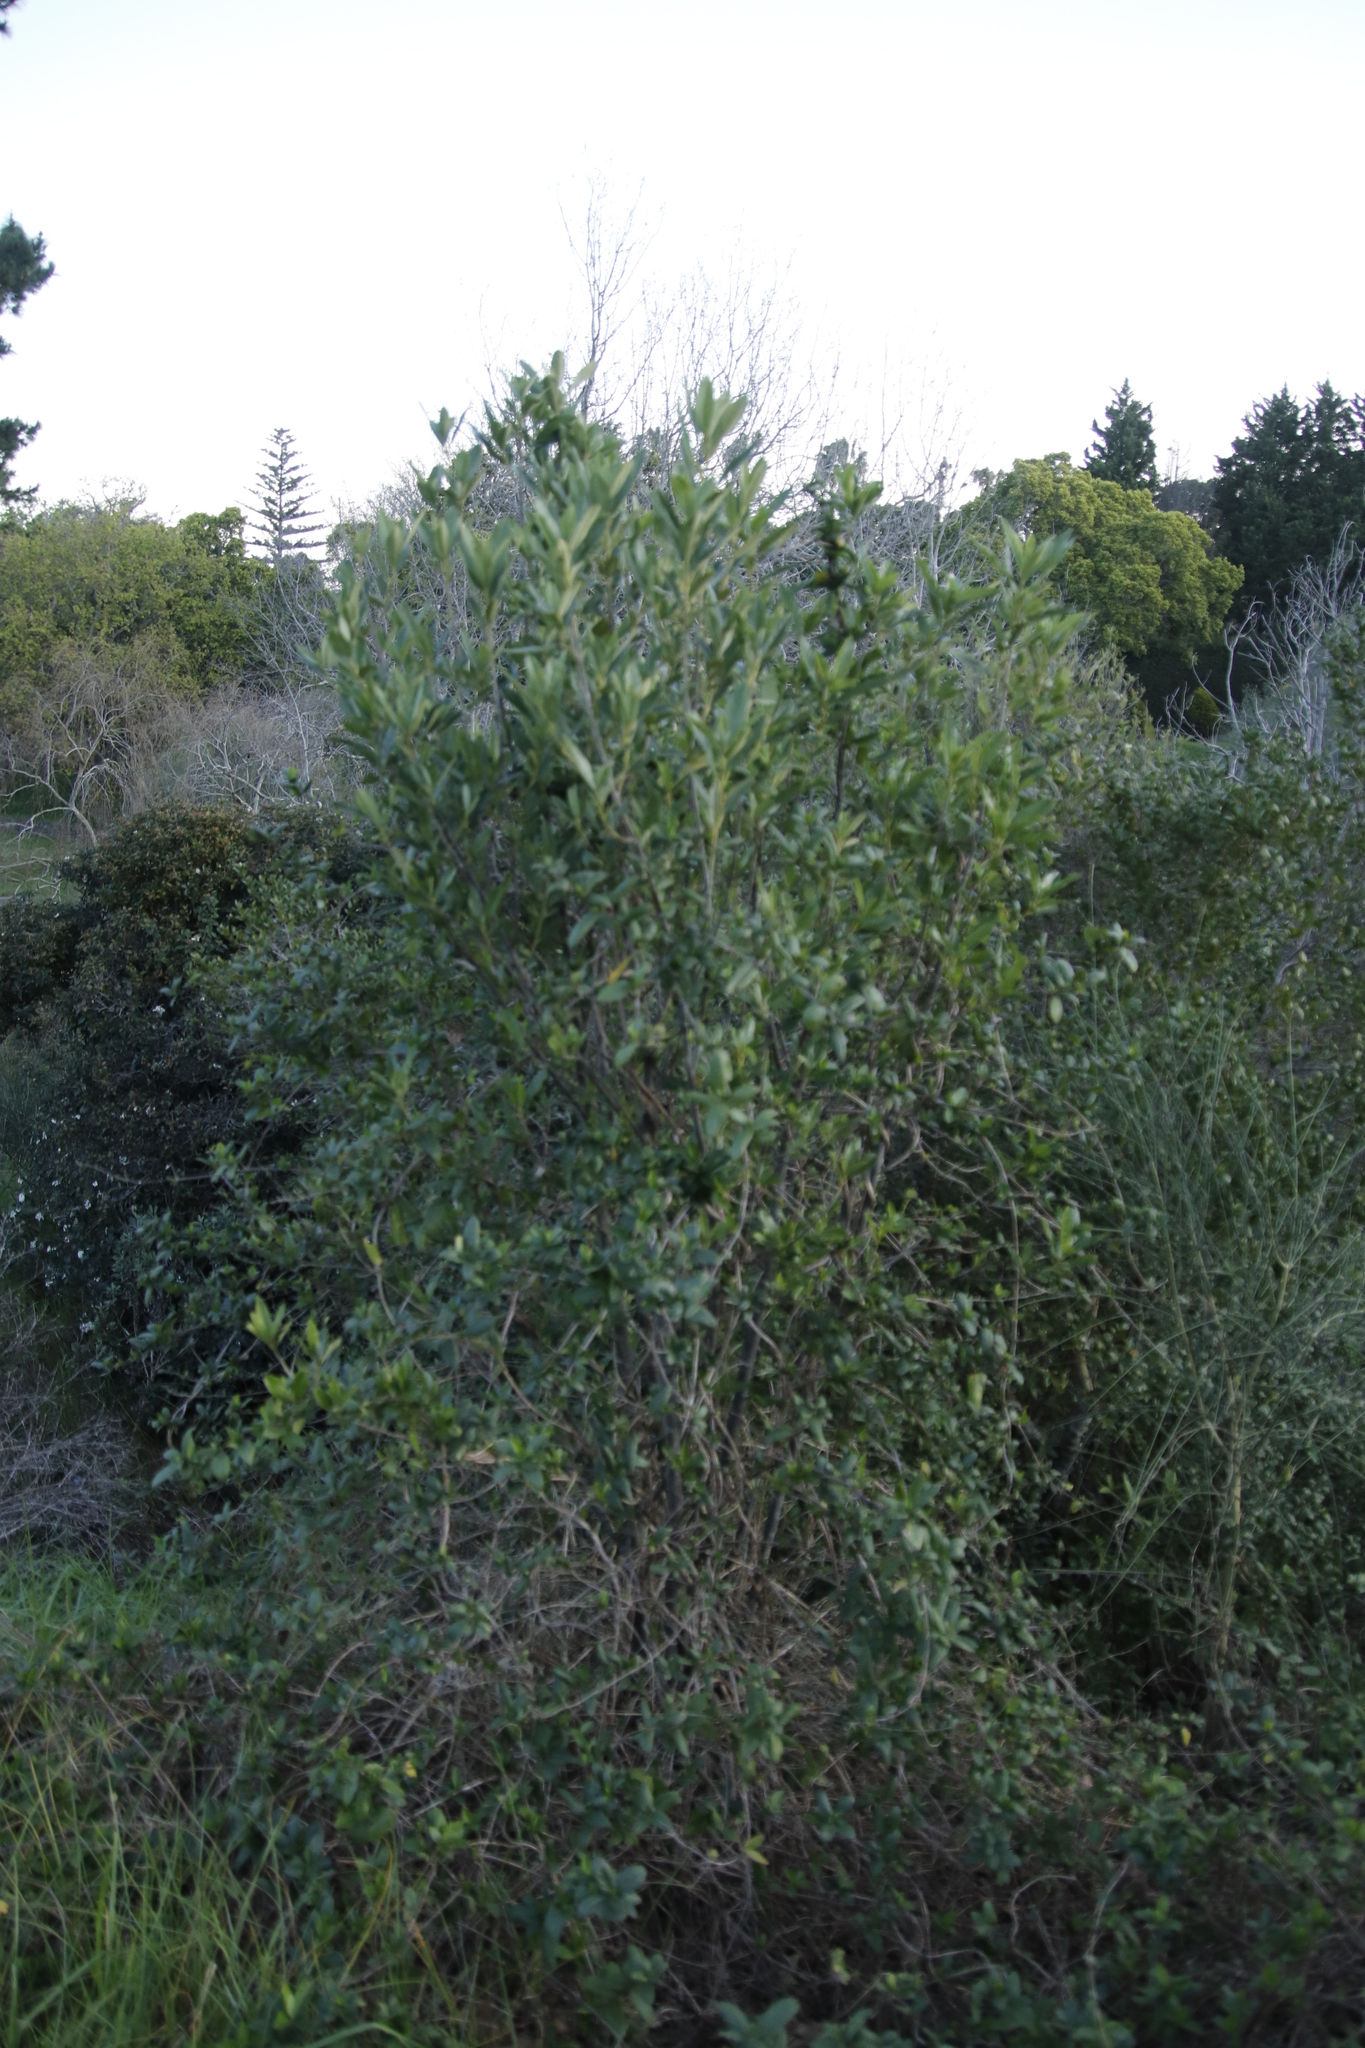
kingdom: Plantae
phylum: Tracheophyta
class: Magnoliopsida
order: Malpighiales
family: Achariaceae
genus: Kiggelaria
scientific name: Kiggelaria africana
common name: Wild peach
